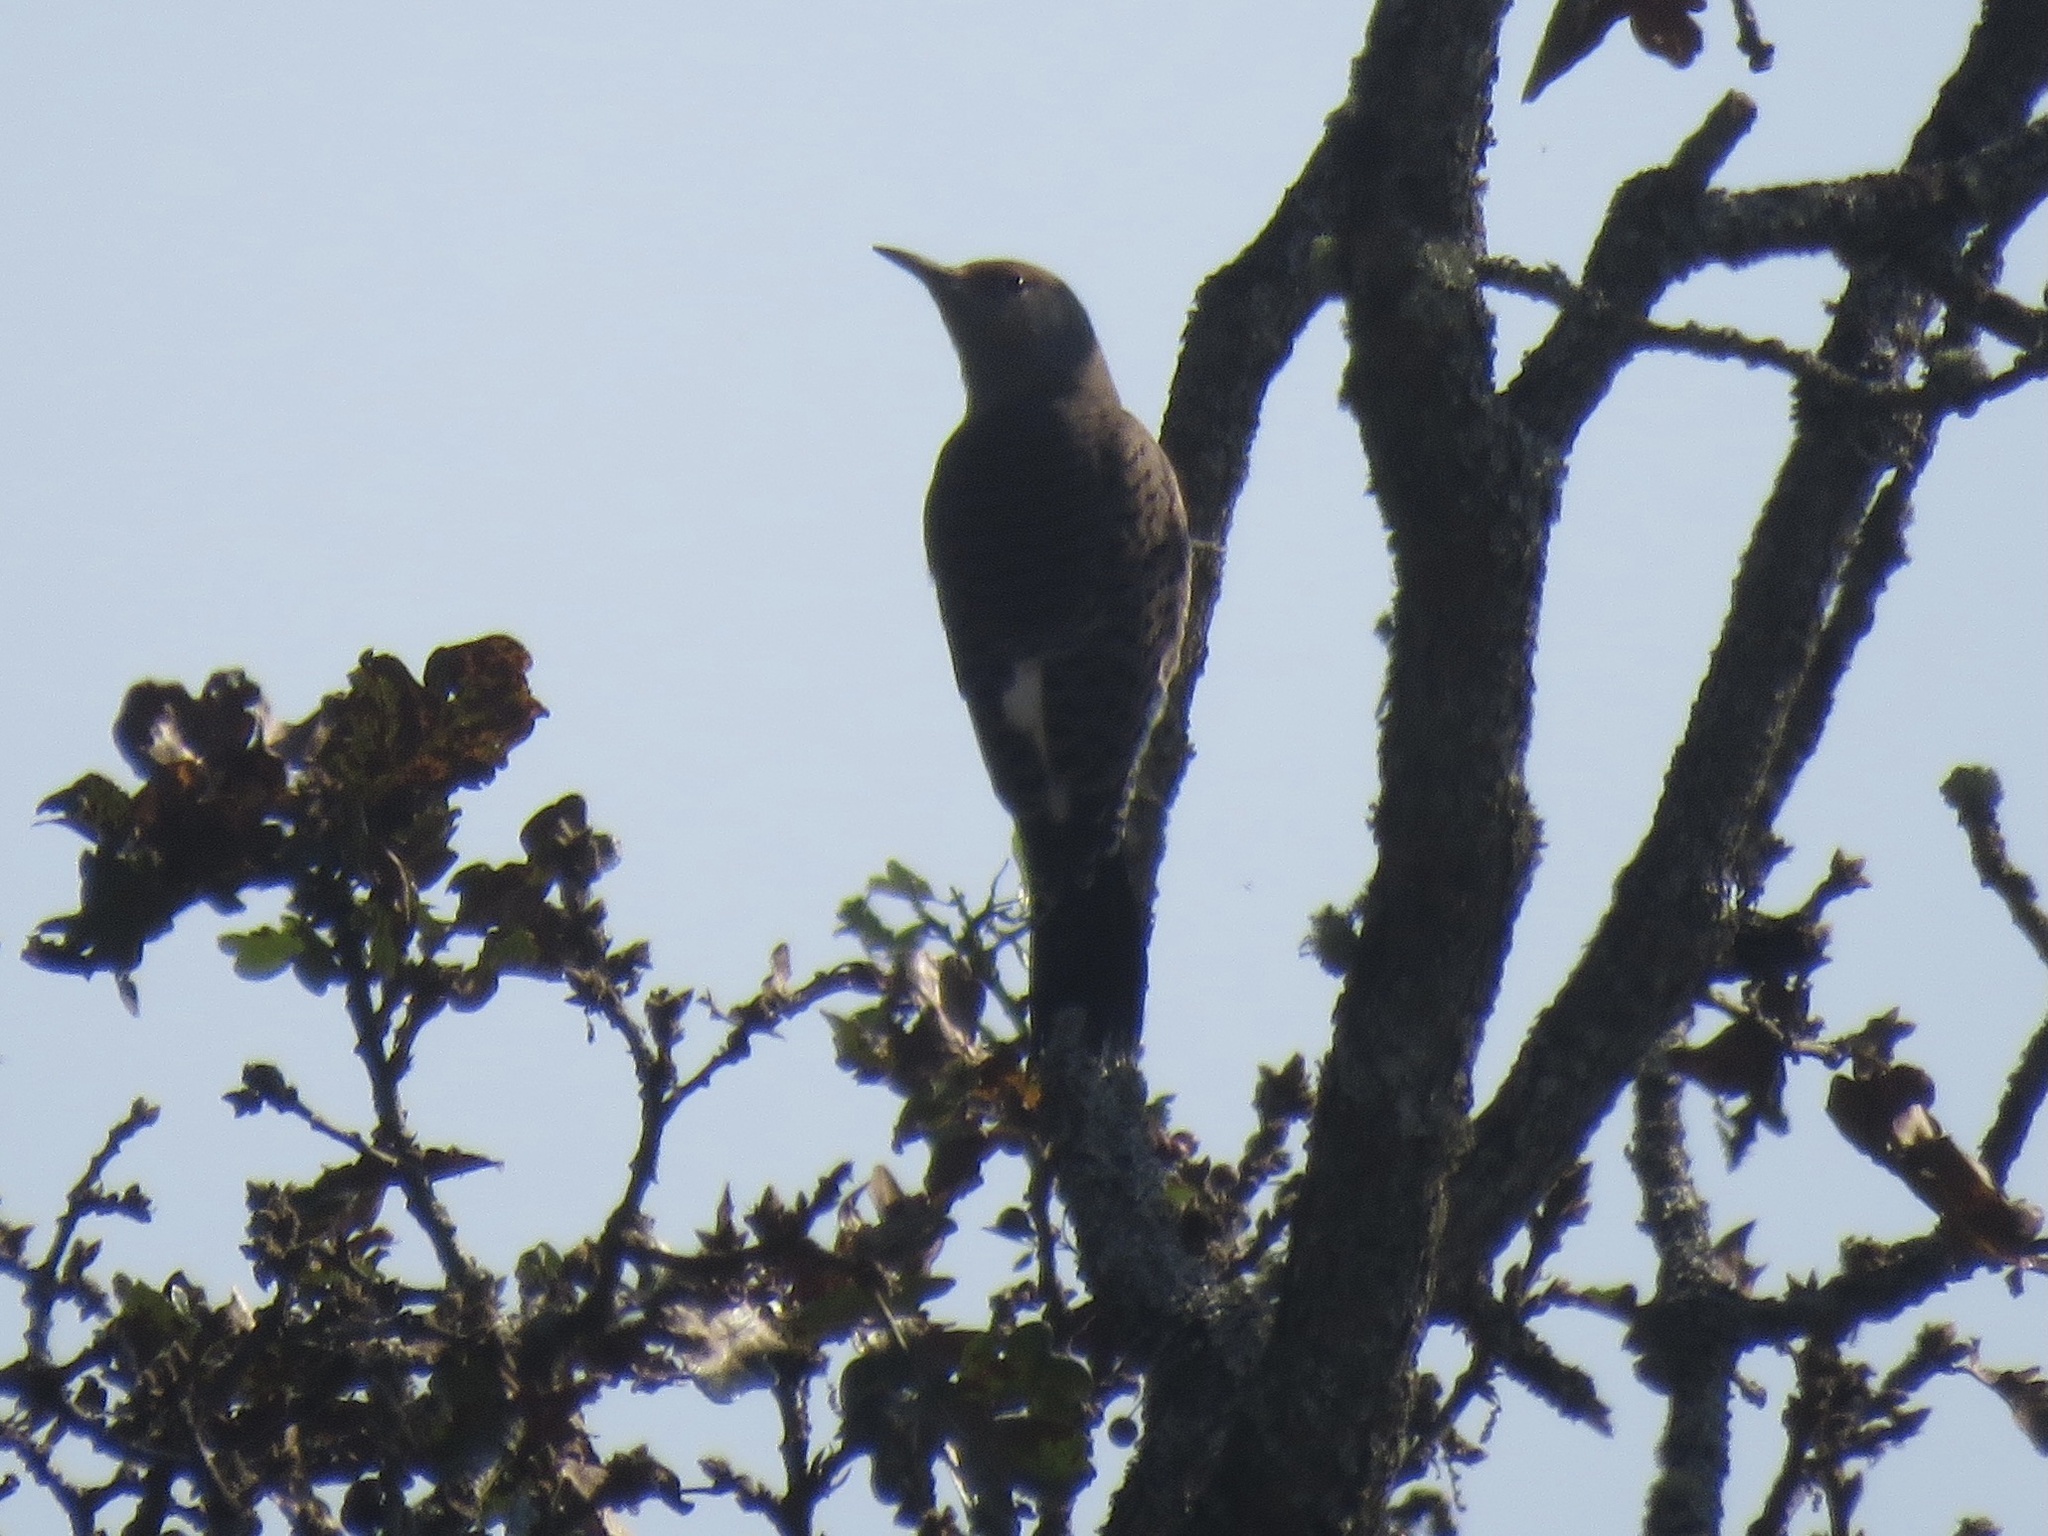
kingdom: Animalia
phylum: Chordata
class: Aves
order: Piciformes
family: Picidae
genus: Colaptes
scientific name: Colaptes auratus
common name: Northern flicker
